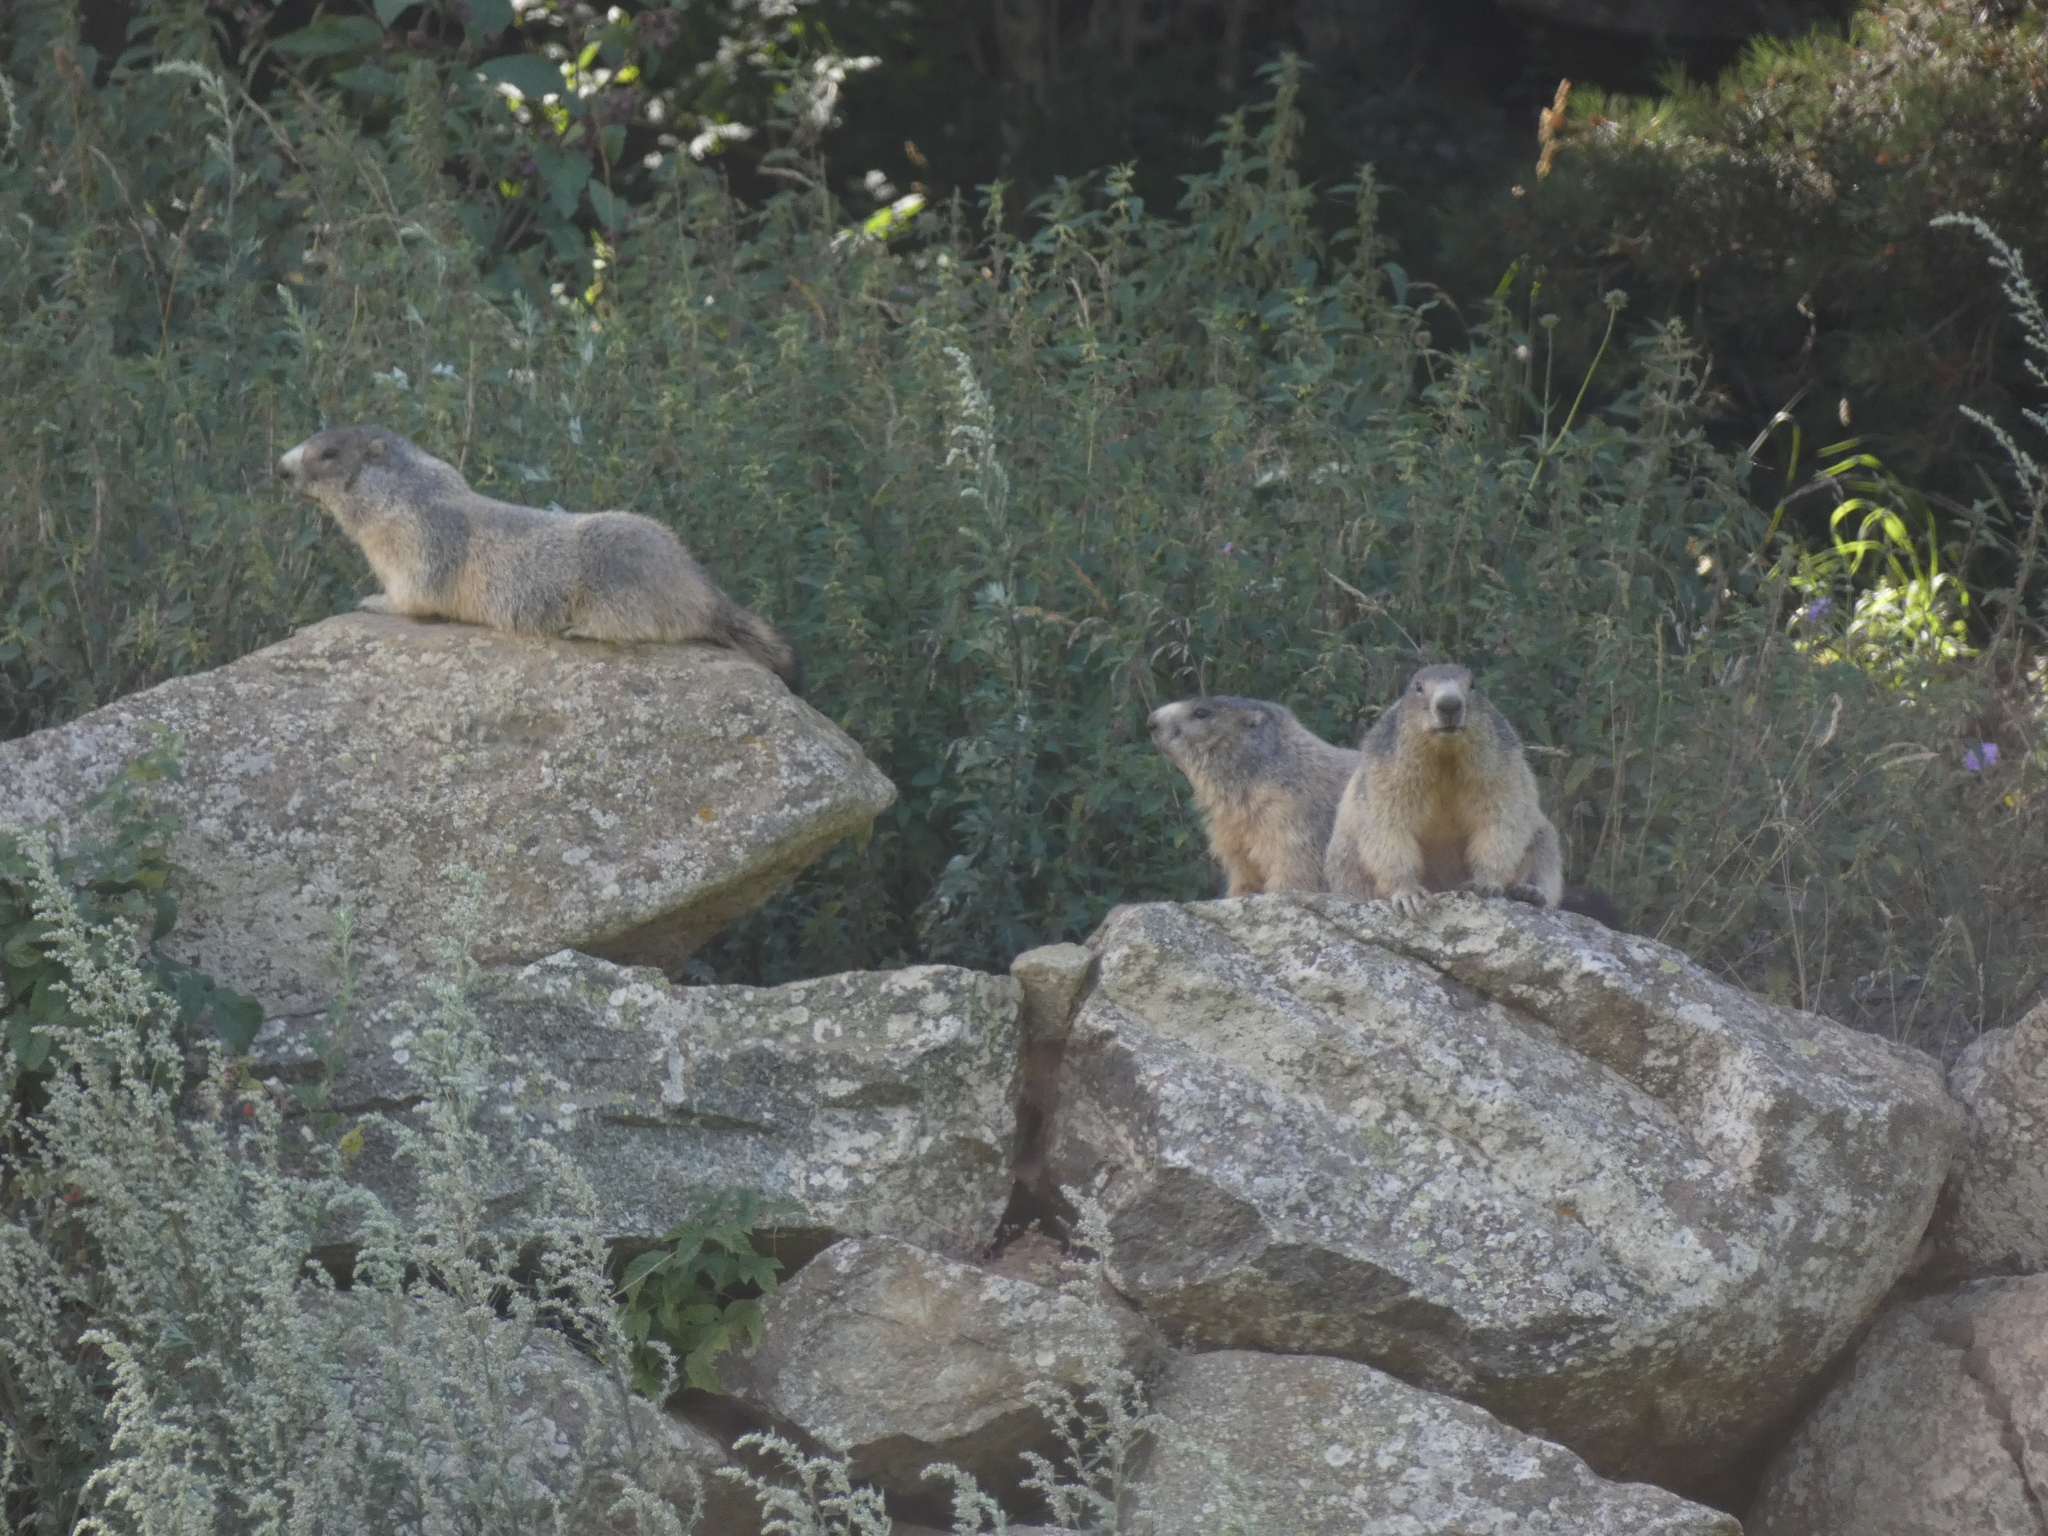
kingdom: Animalia
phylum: Chordata
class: Mammalia
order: Rodentia
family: Sciuridae
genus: Marmota
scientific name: Marmota marmota
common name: Alpine marmot
